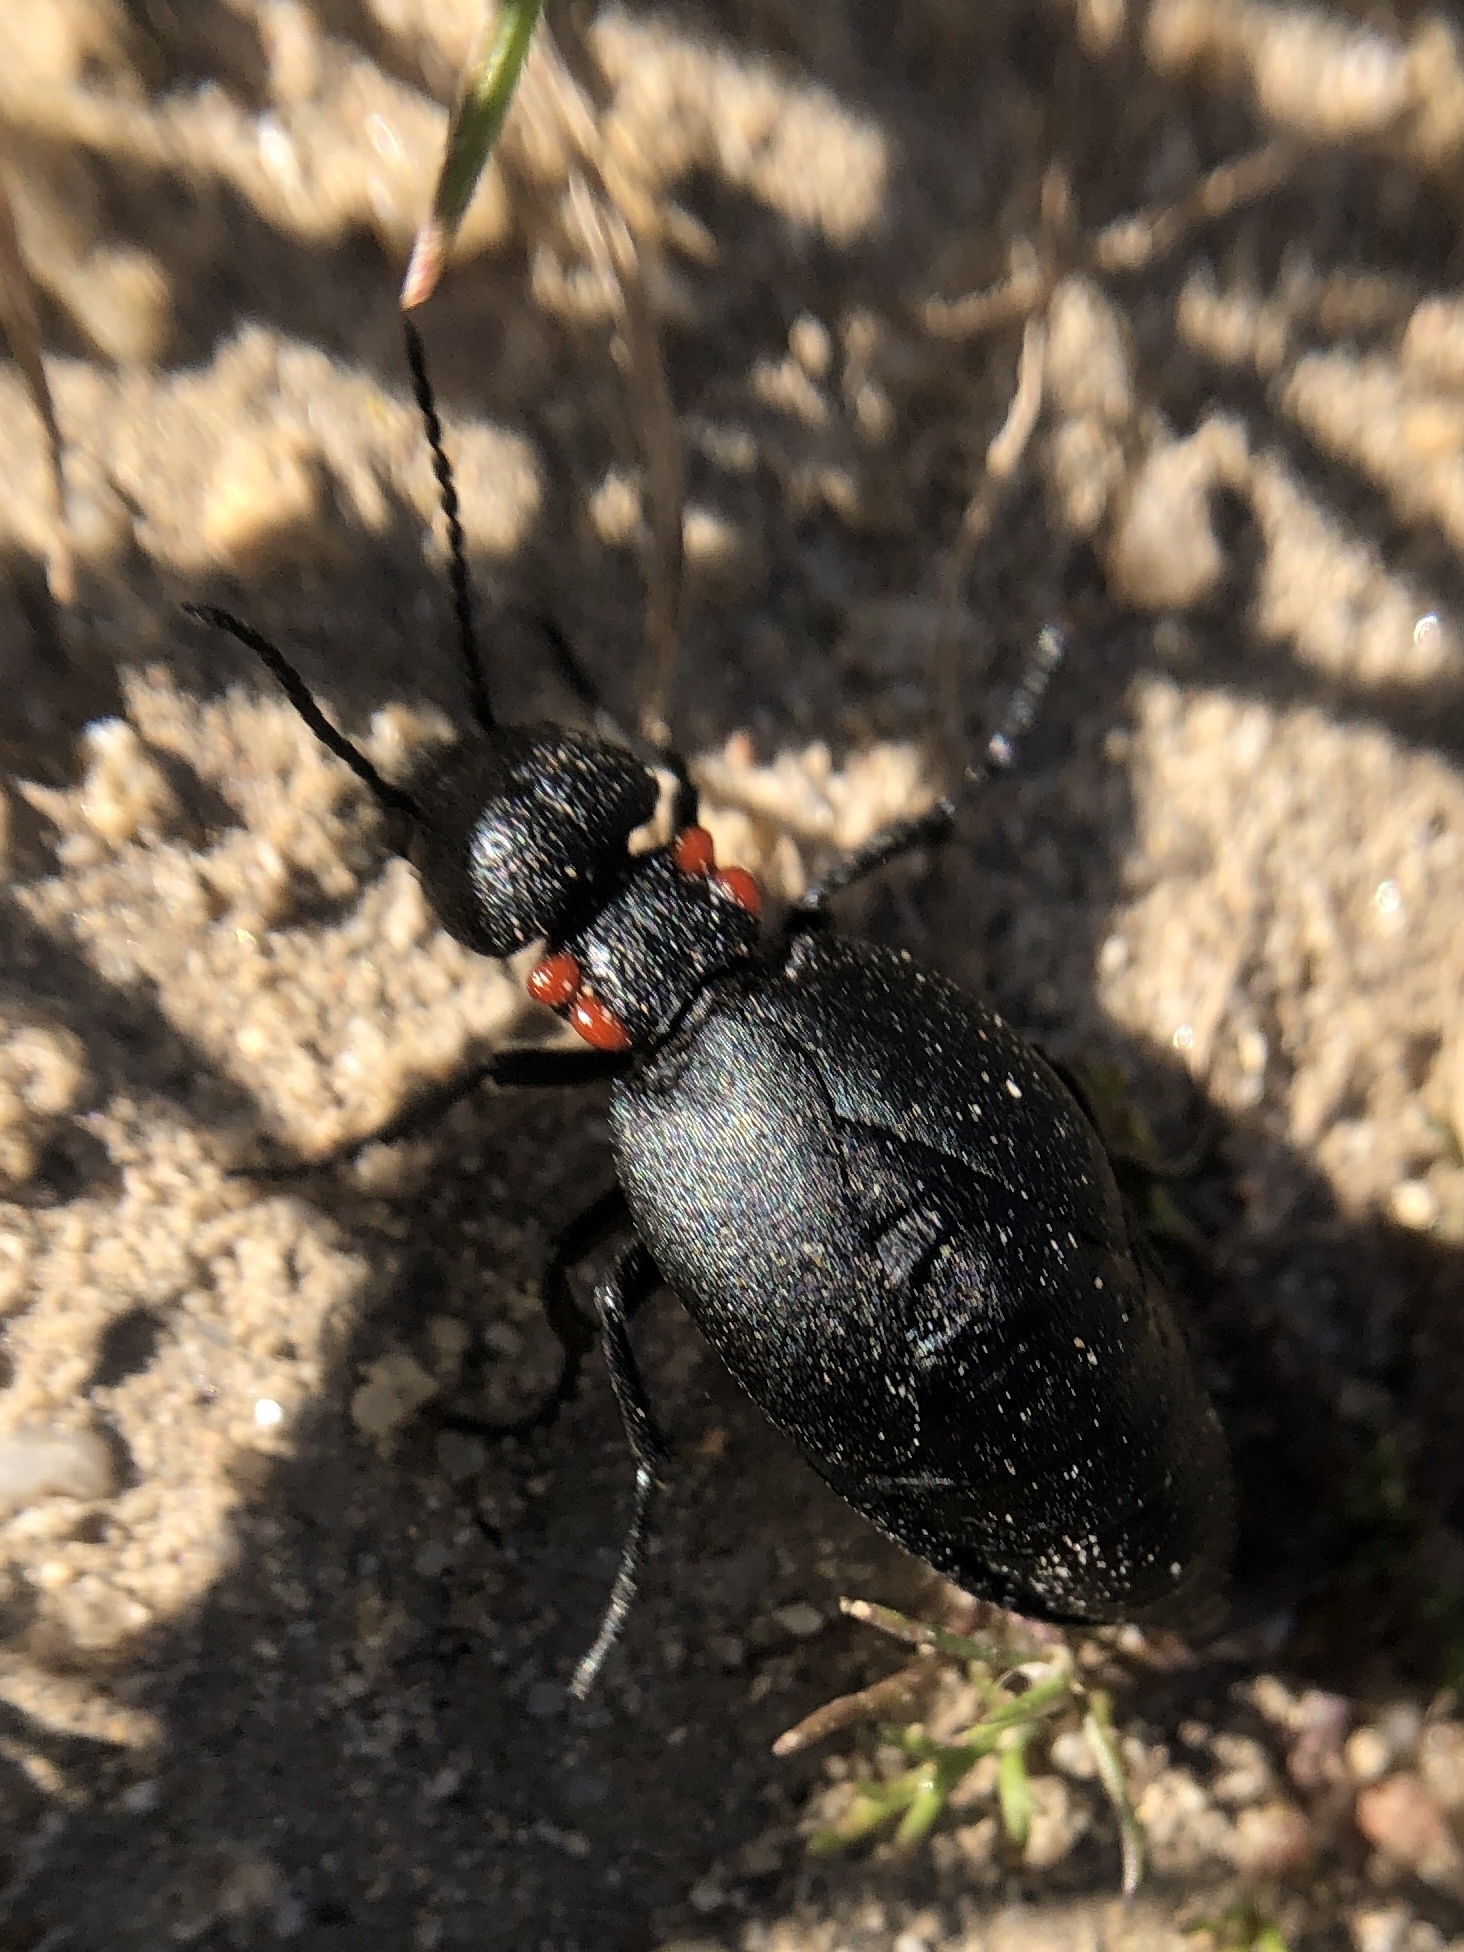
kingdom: Animalia
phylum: Arthropoda
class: Insecta
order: Coleoptera
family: Meloidae
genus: Physomeloe
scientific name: Physomeloe corallifer
